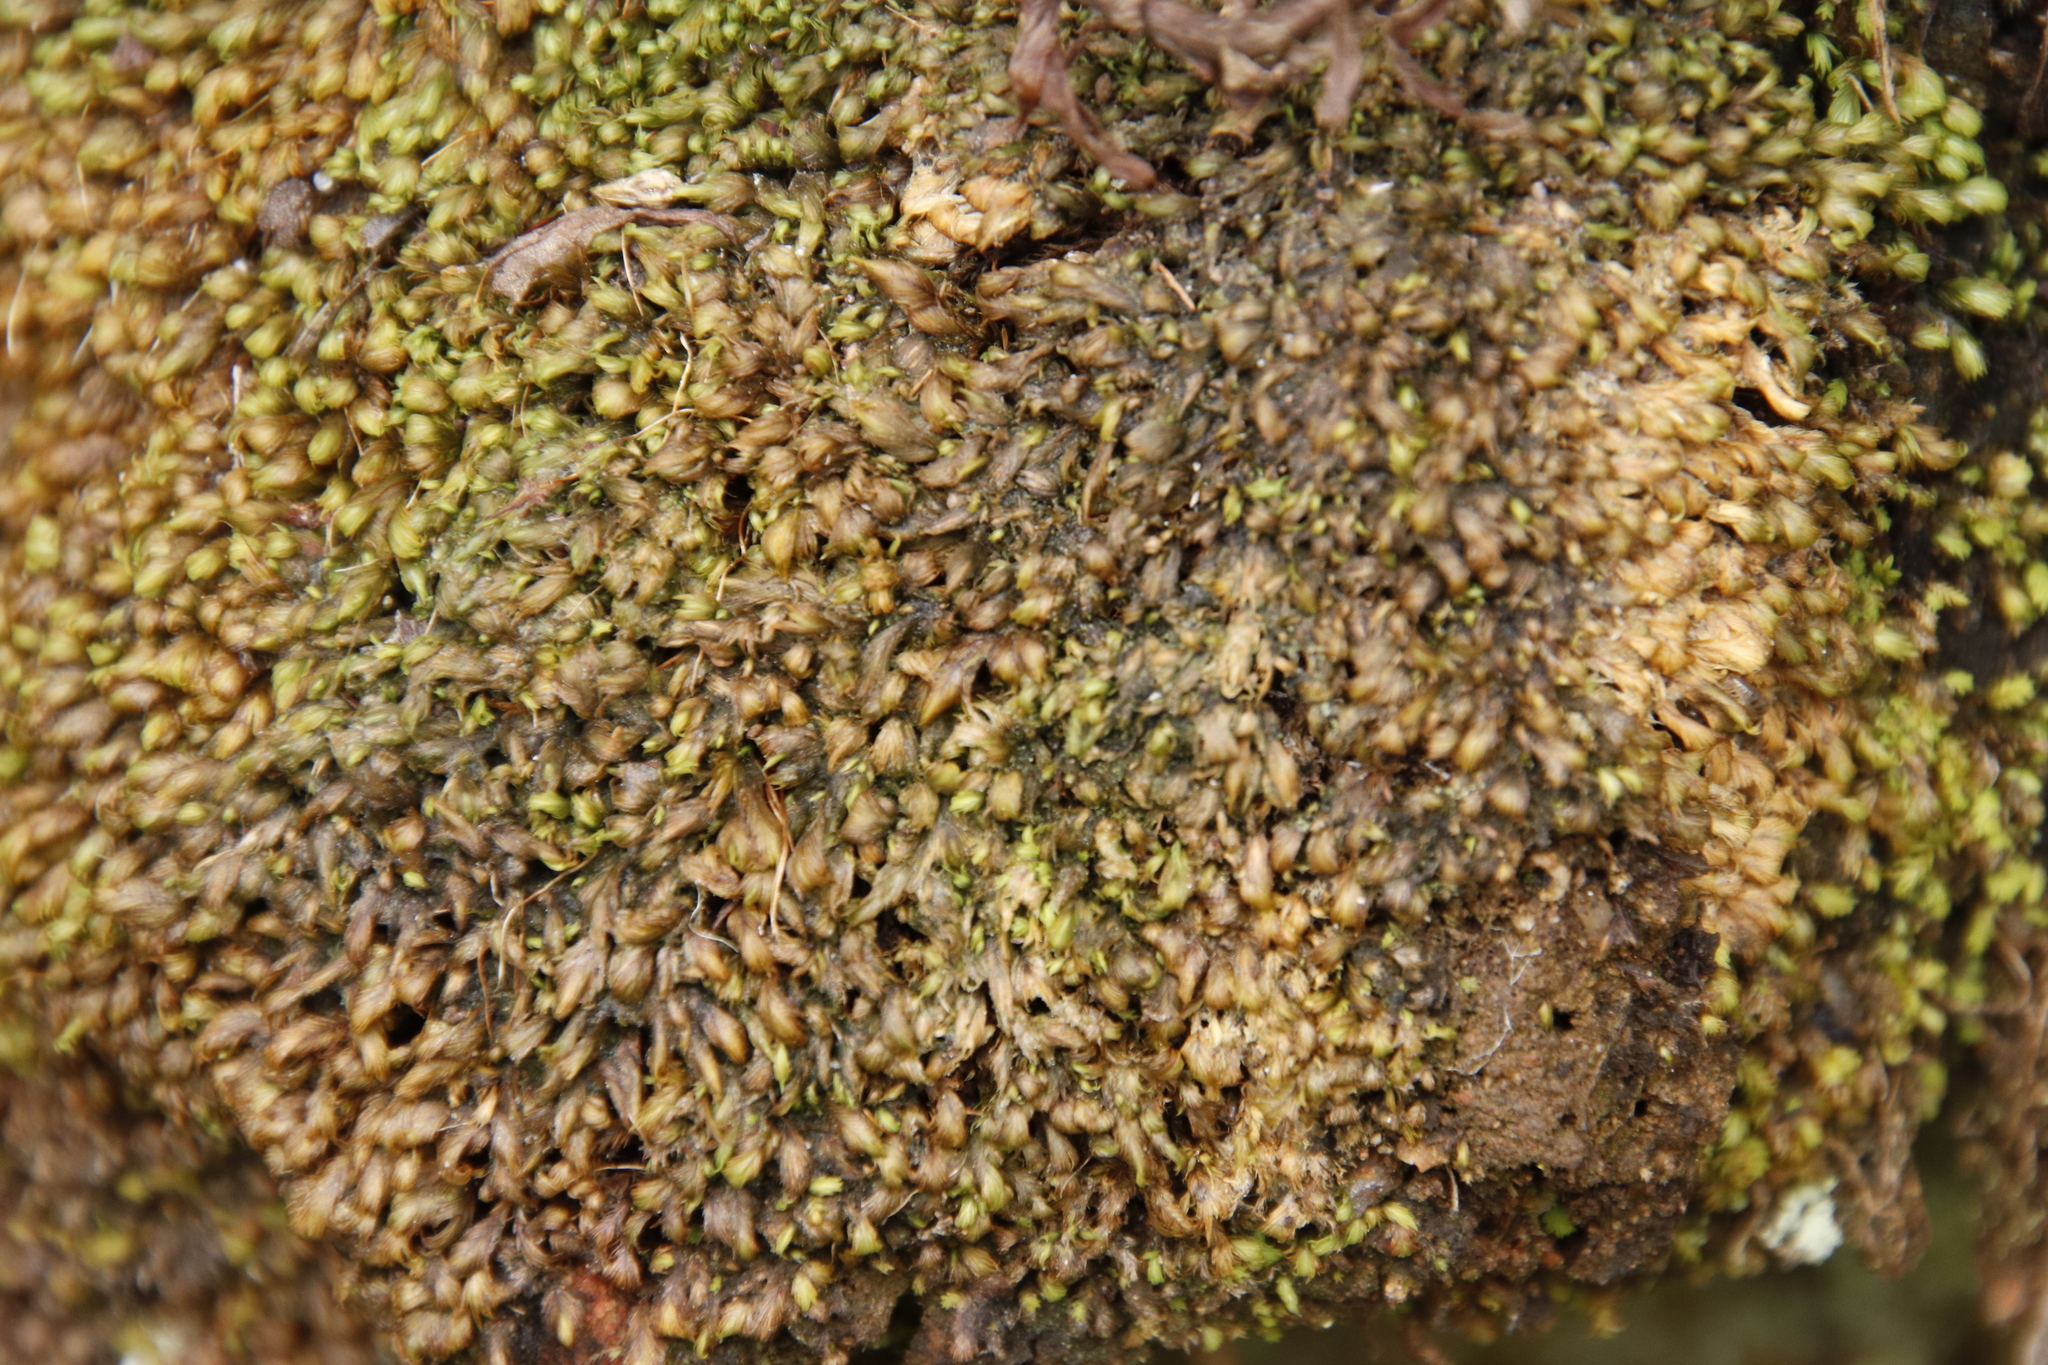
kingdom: Plantae
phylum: Bryophyta
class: Bryopsida
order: Dicranales
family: Fissidentaceae
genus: Fissidens
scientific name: Fissidens ovatus
